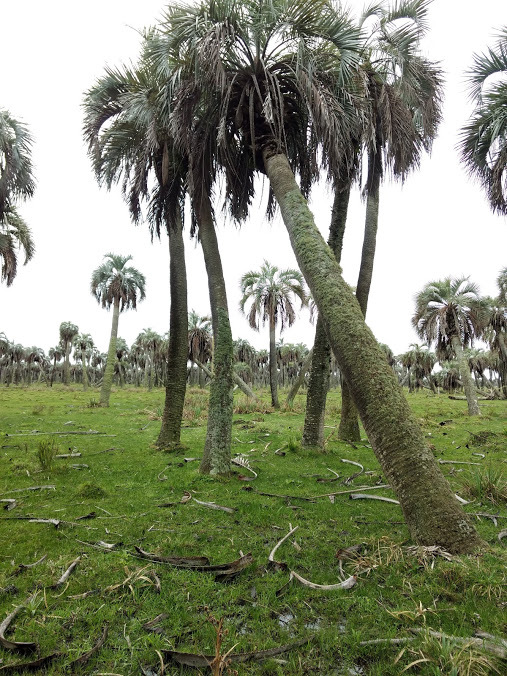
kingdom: Plantae
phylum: Tracheophyta
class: Liliopsida
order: Arecales
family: Arecaceae
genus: Butia
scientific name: Butia odorata
